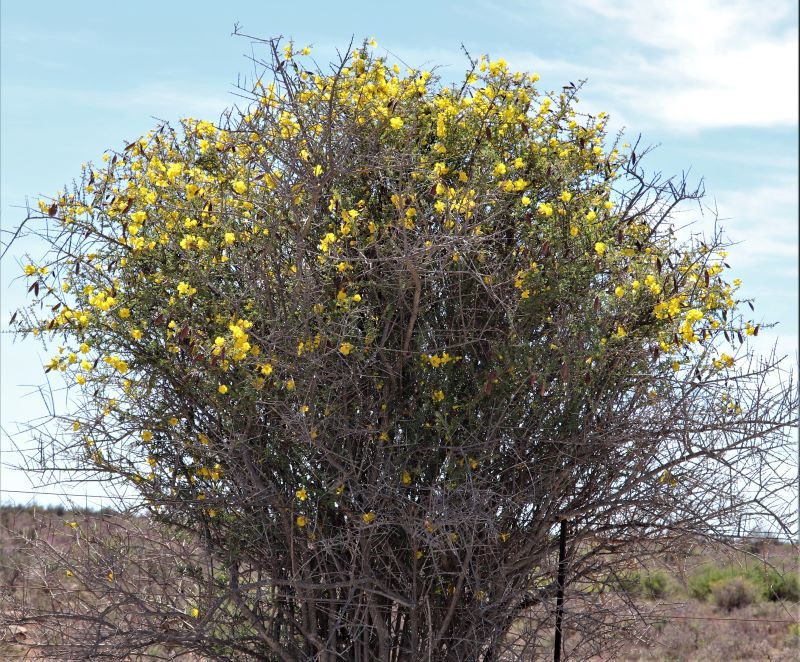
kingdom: Plantae
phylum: Tracheophyta
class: Magnoliopsida
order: Lamiales
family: Bignoniaceae
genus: Rhigozum
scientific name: Rhigozum obovatum
